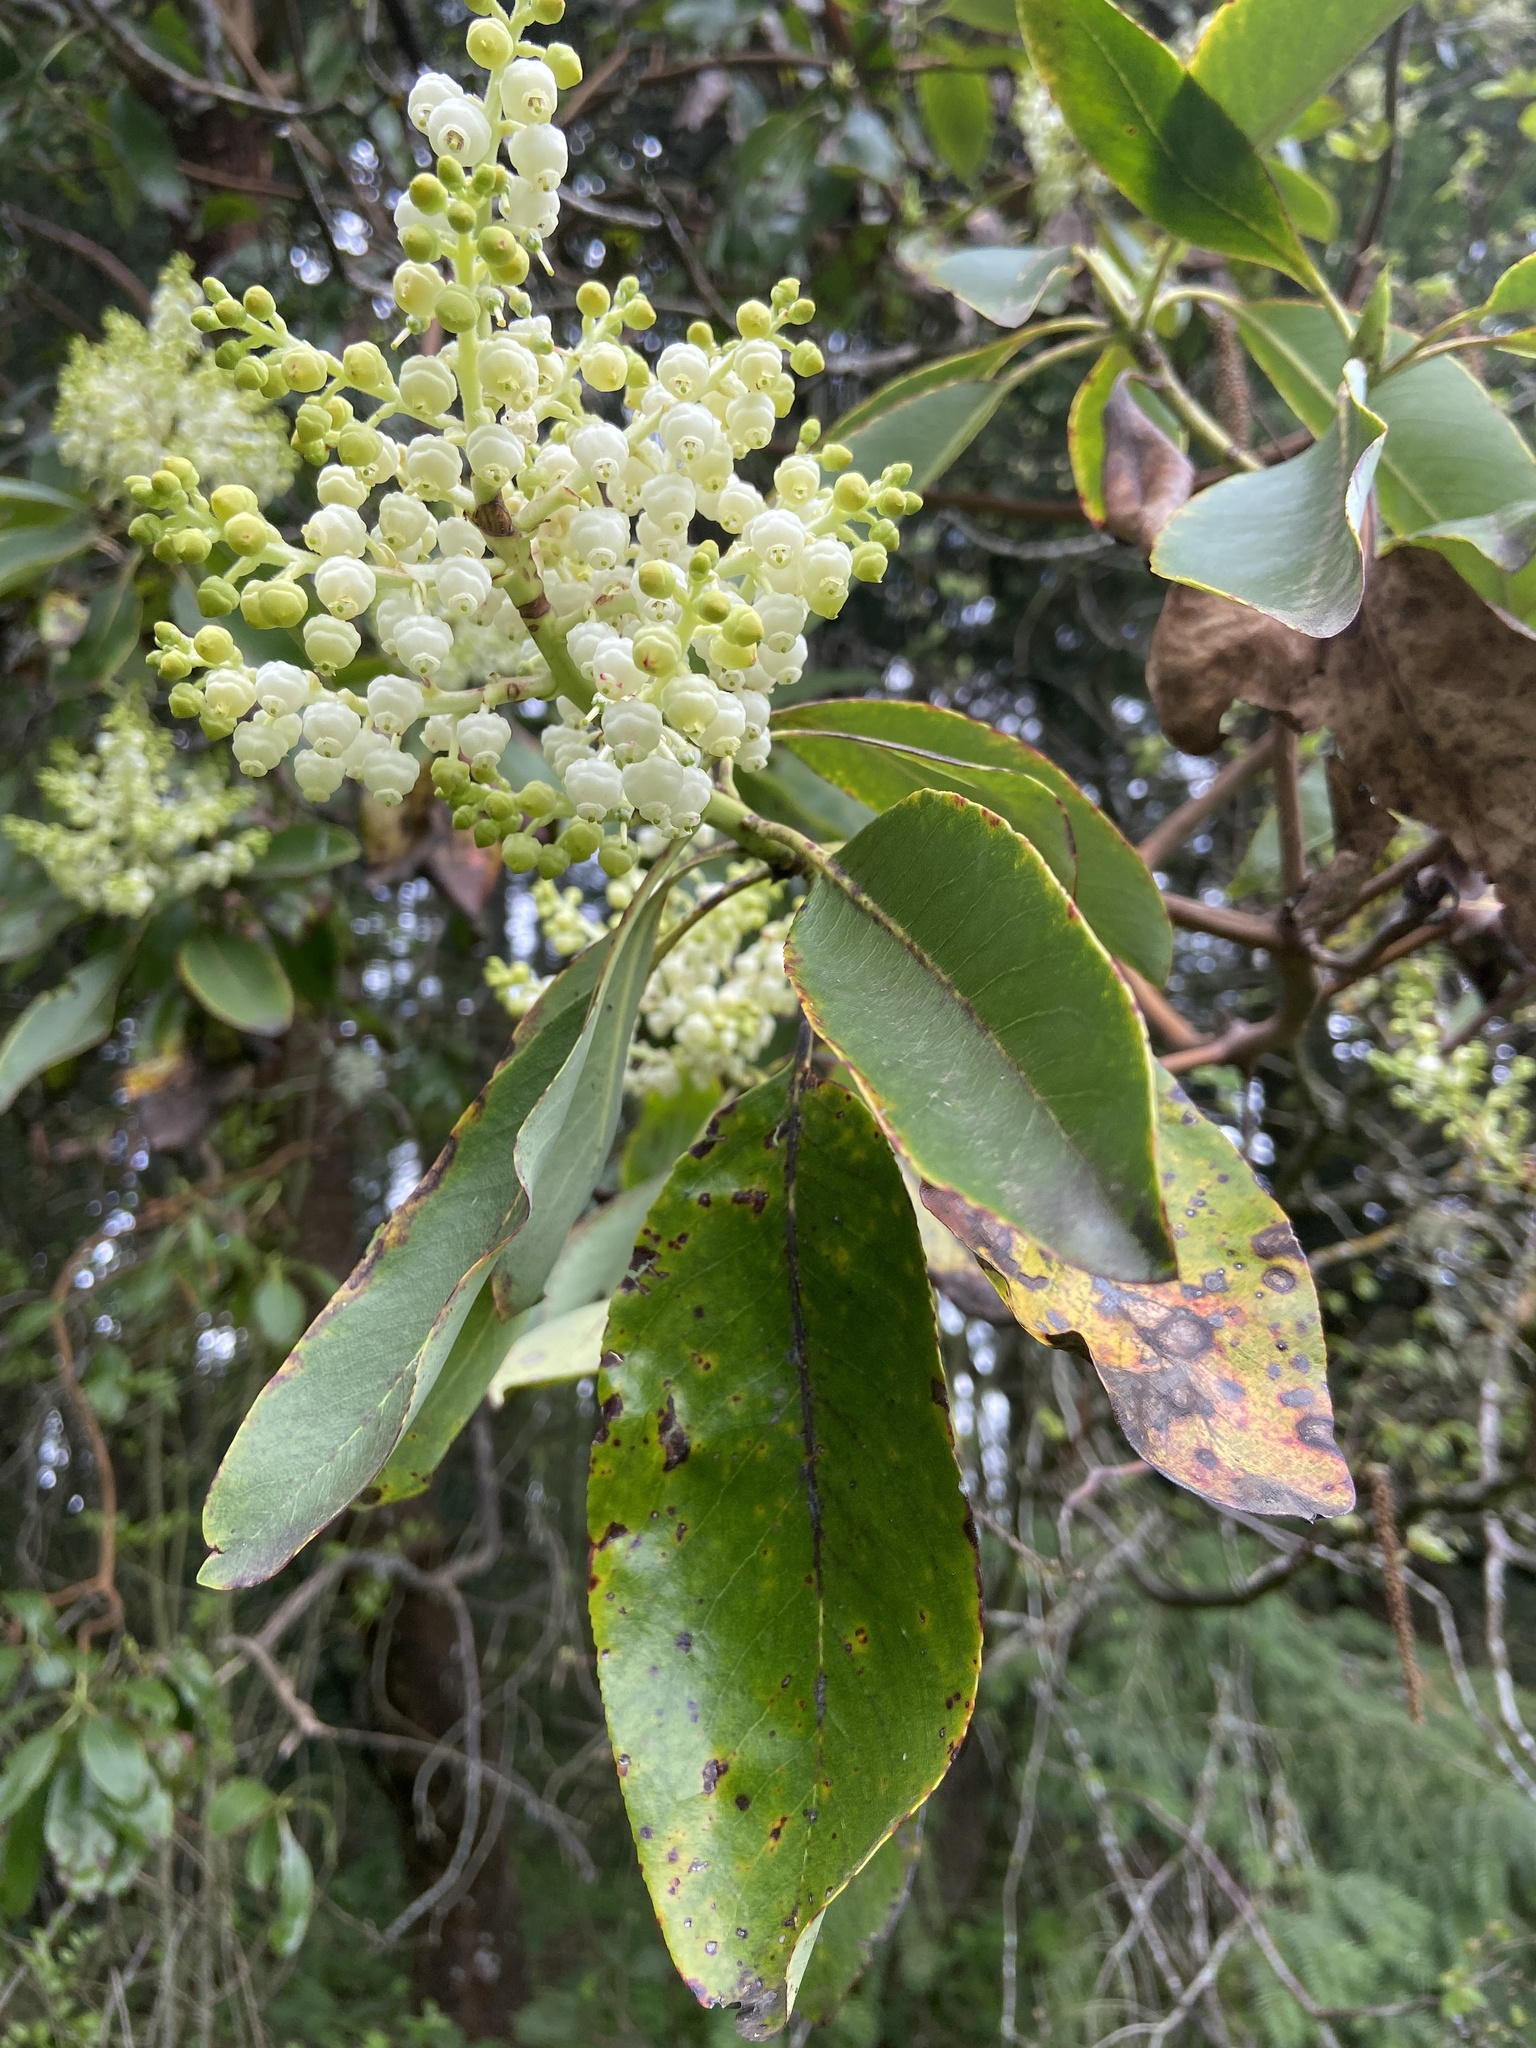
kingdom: Plantae
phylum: Tracheophyta
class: Magnoliopsida
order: Ericales
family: Ericaceae
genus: Arbutus
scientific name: Arbutus menziesii
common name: Pacific madrone
